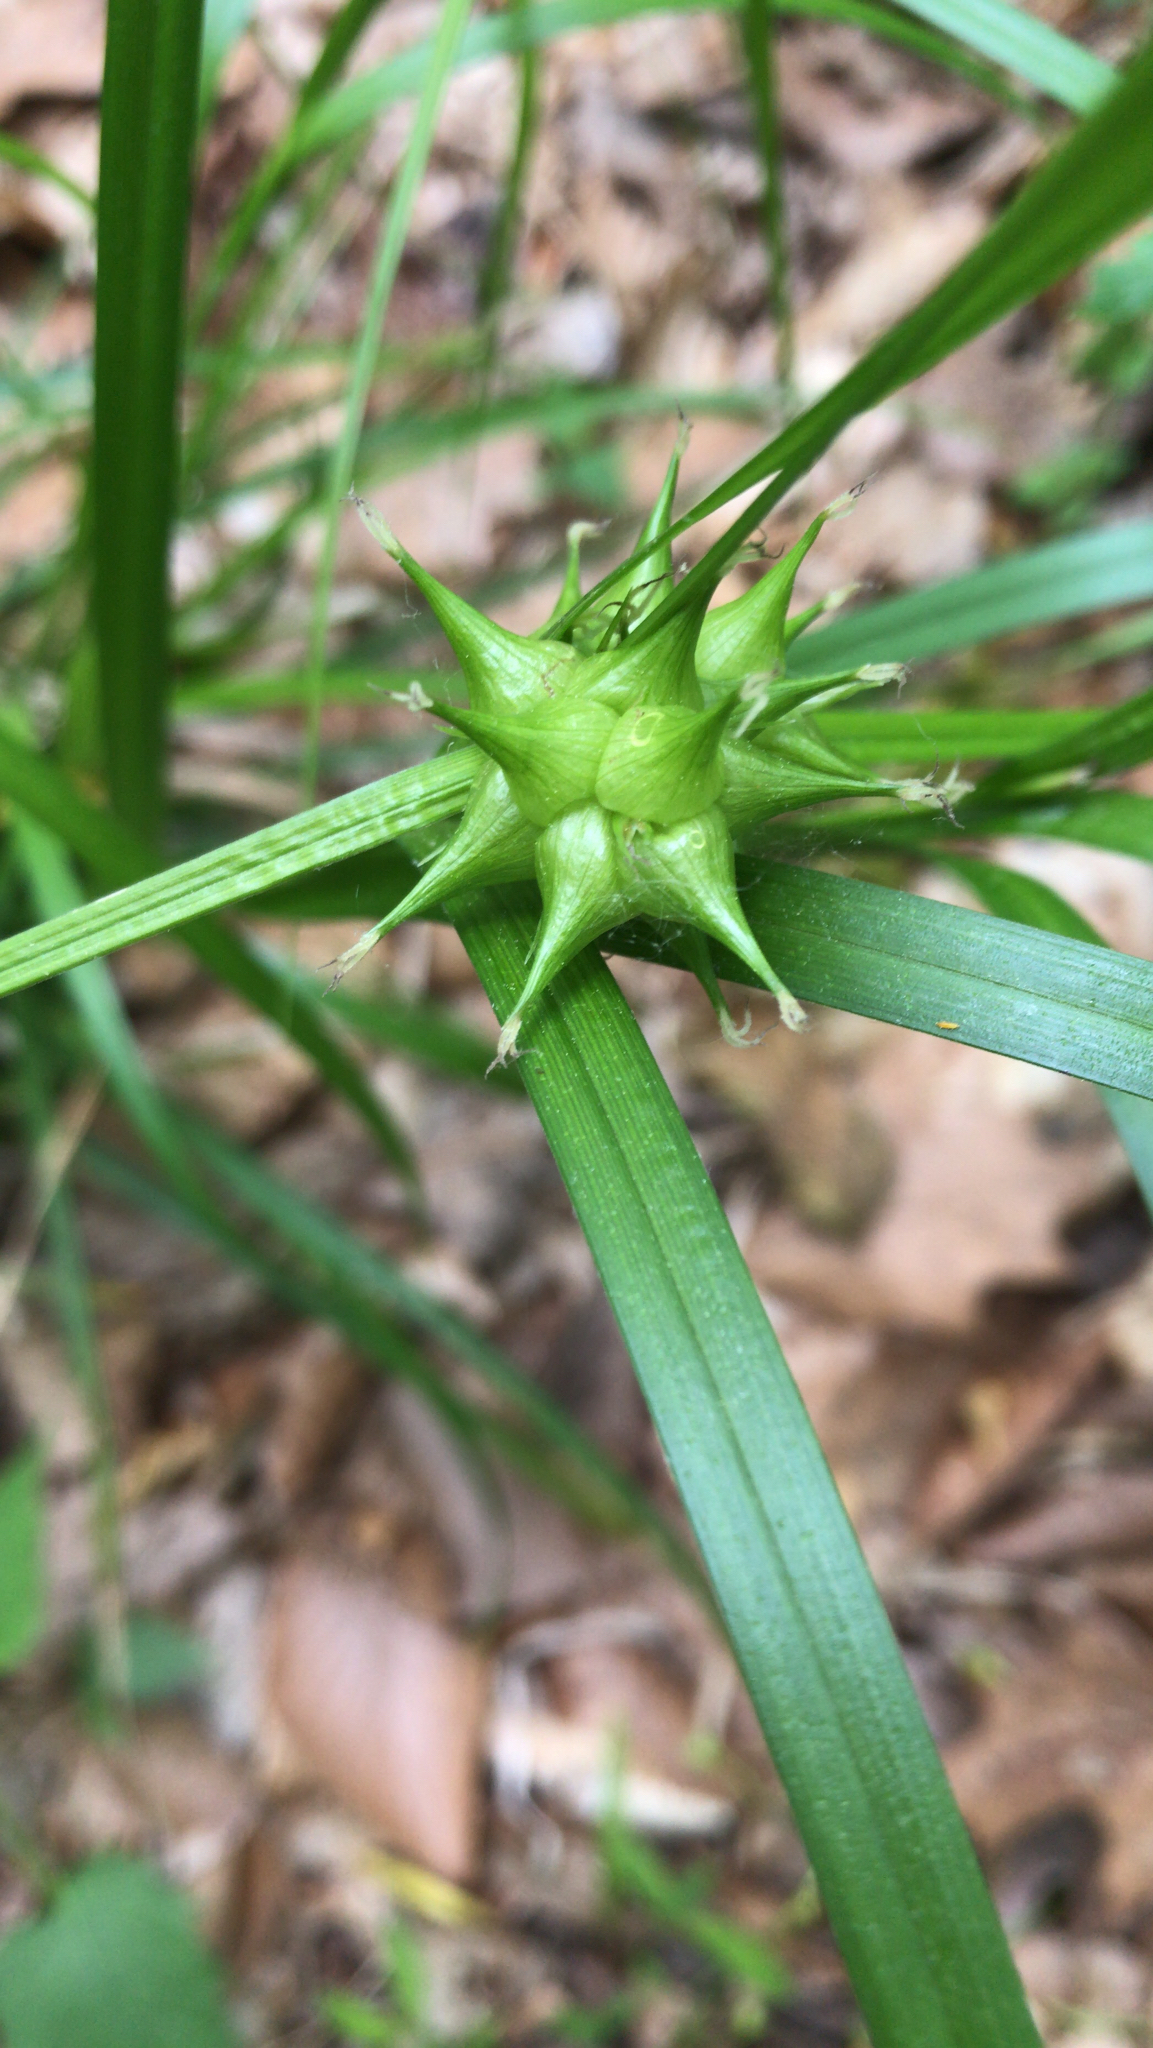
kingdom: Plantae
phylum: Tracheophyta
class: Liliopsida
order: Poales
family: Cyperaceae
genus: Carex
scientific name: Carex intumescens
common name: Greater bladder sedge
